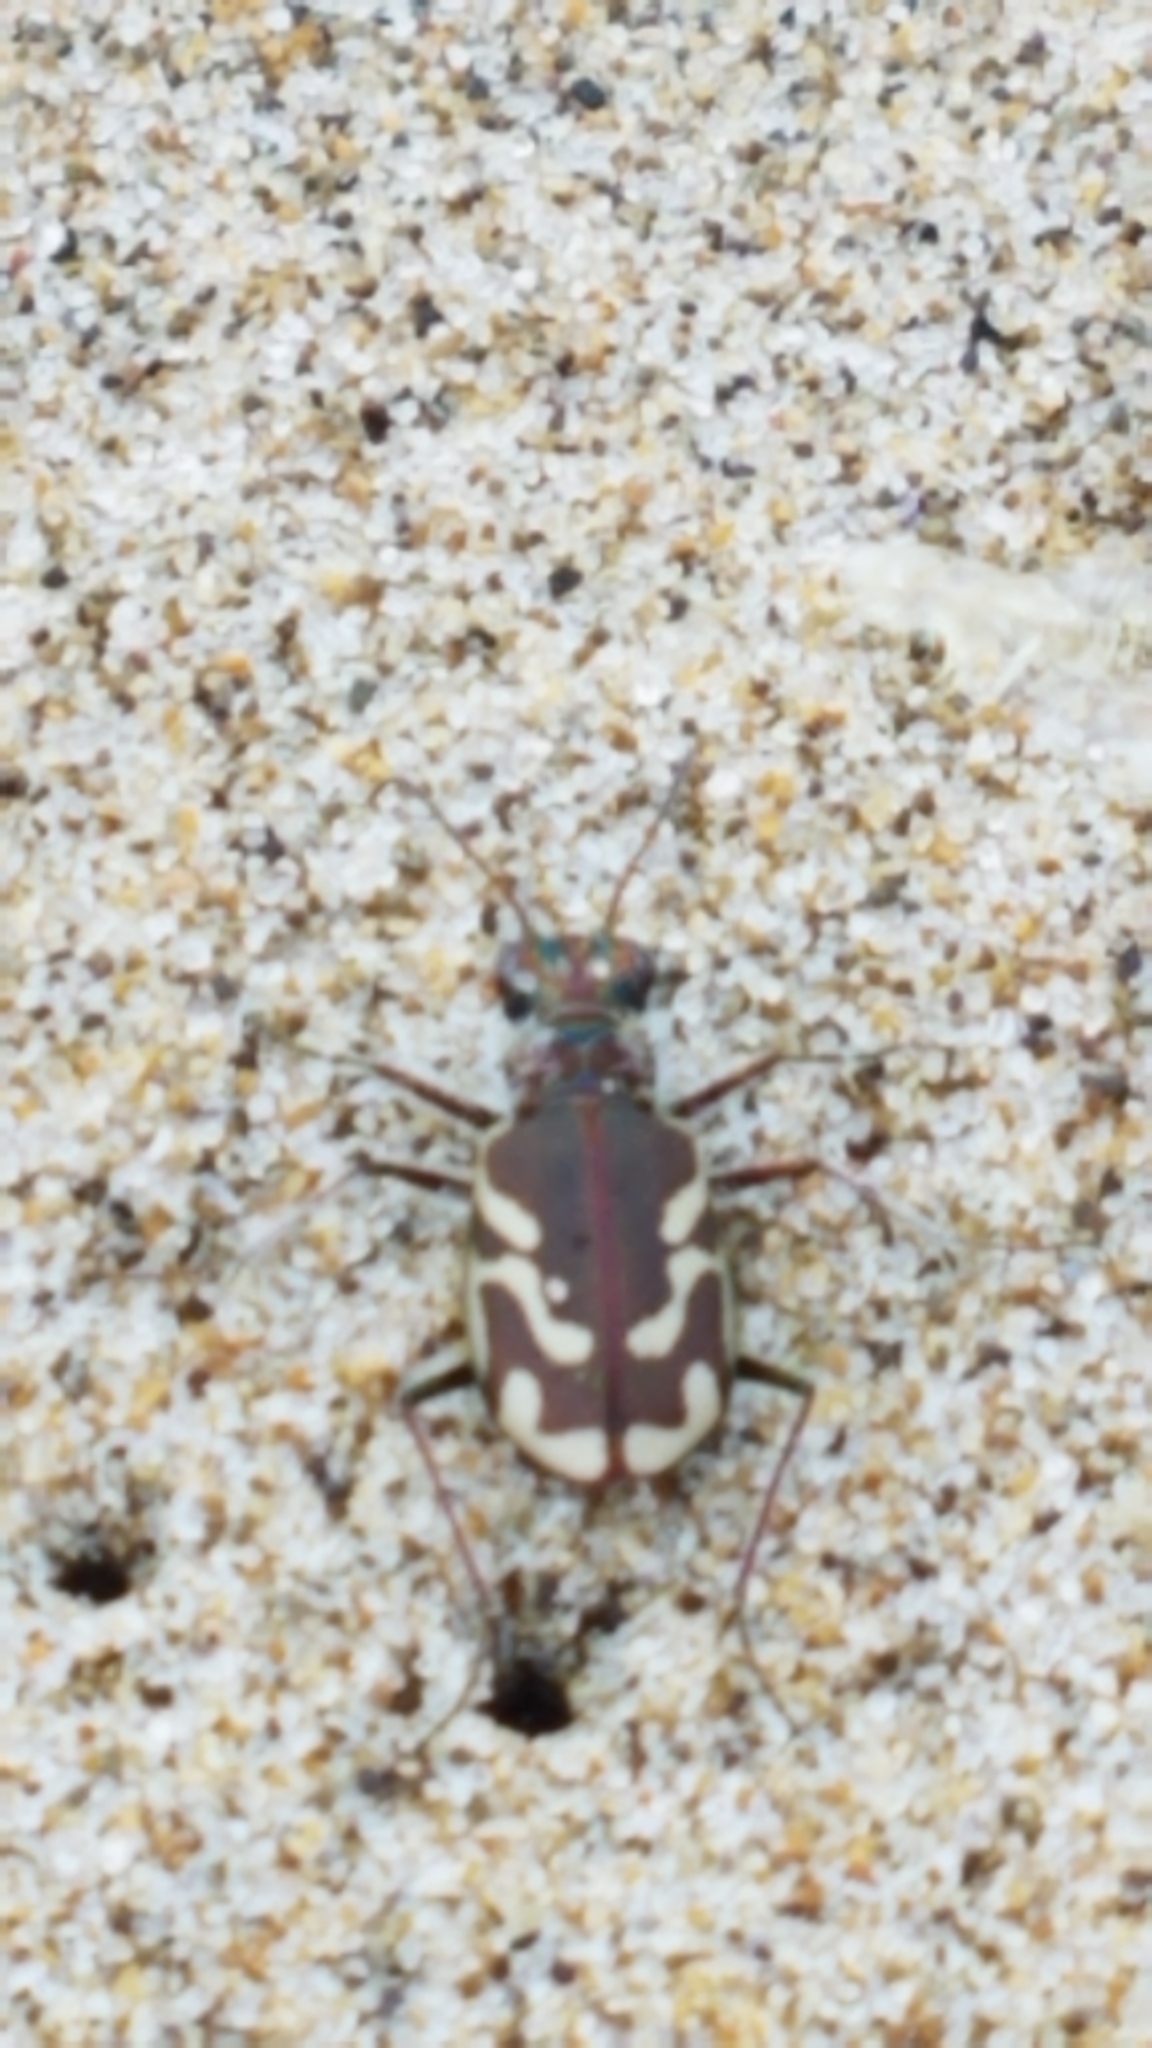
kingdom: Animalia
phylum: Arthropoda
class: Insecta
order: Coleoptera
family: Carabidae
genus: Cicindela
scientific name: Cicindela bellissima
